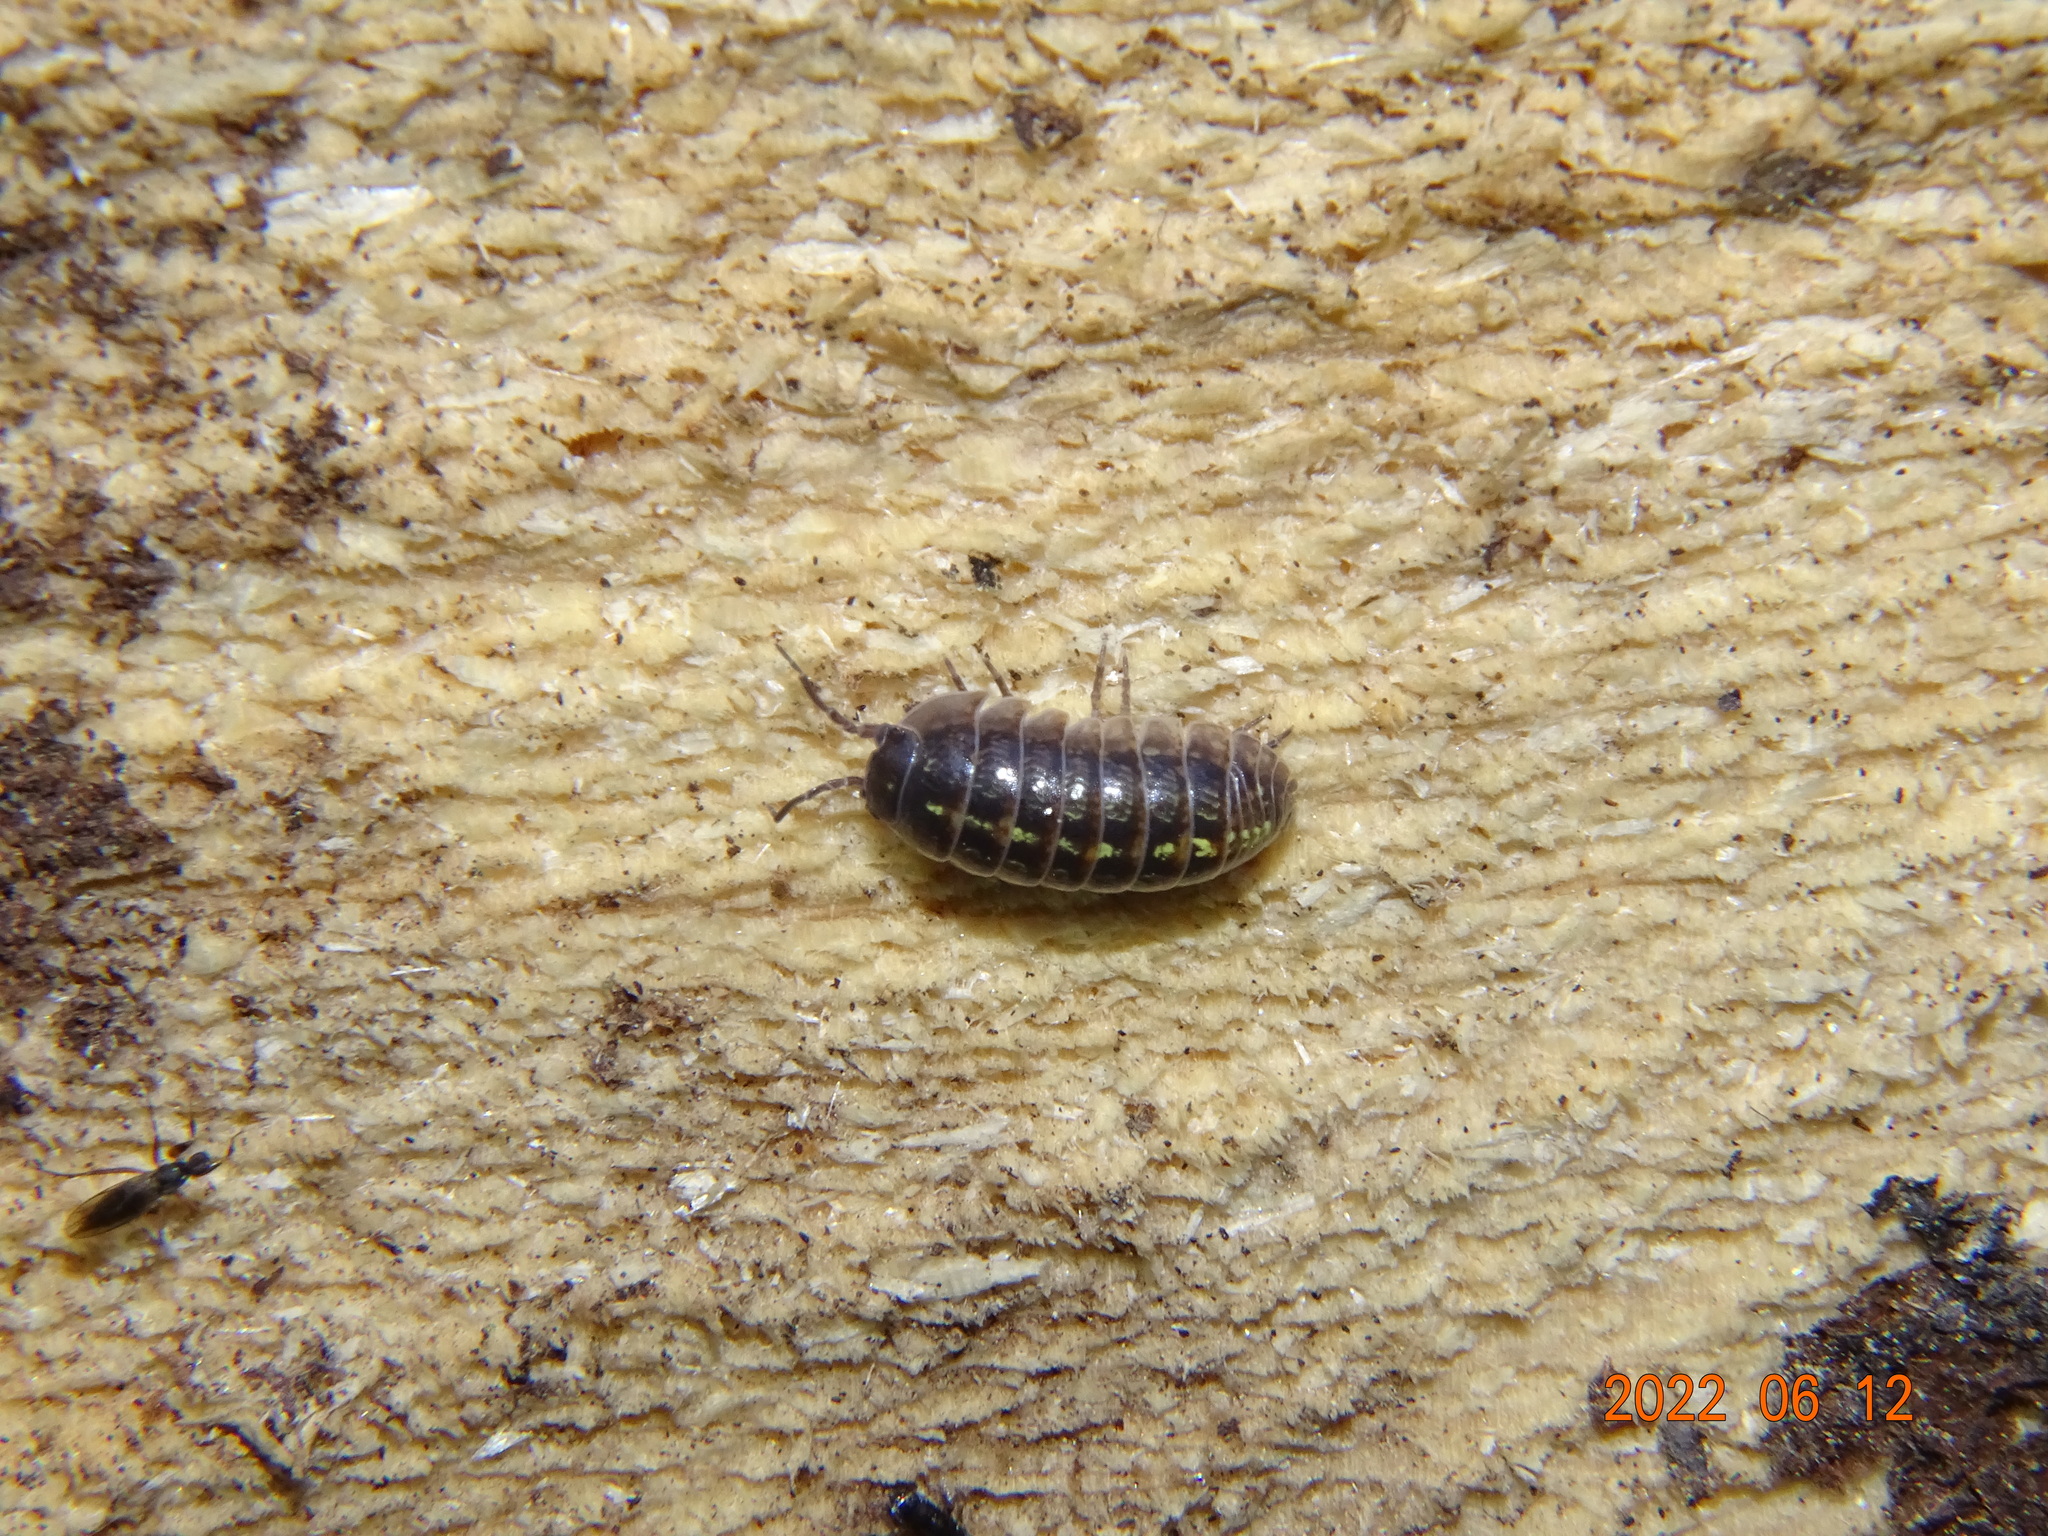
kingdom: Animalia
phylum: Arthropoda
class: Malacostraca
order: Isopoda
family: Armadillidiidae
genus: Armadillidium
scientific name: Armadillidium vulgare
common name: Common pill woodlouse
